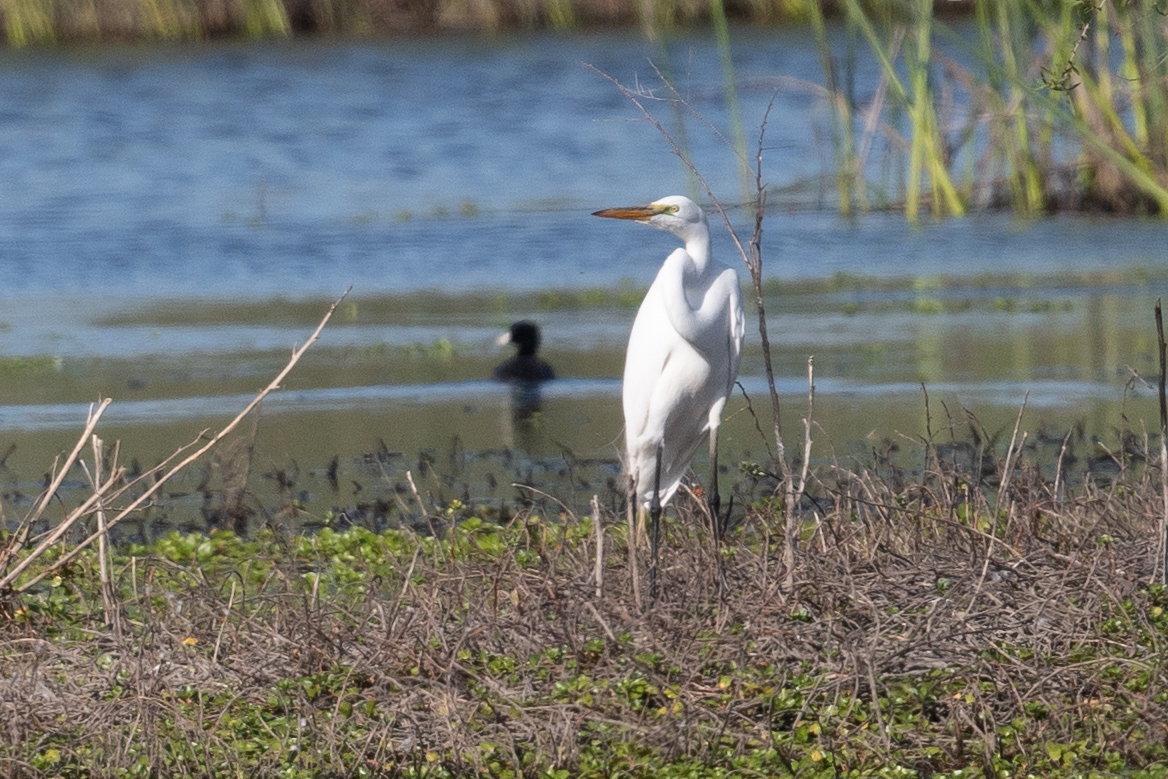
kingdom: Animalia
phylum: Chordata
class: Aves
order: Pelecaniformes
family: Ardeidae
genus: Ardea
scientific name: Ardea alba
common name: Great egret
